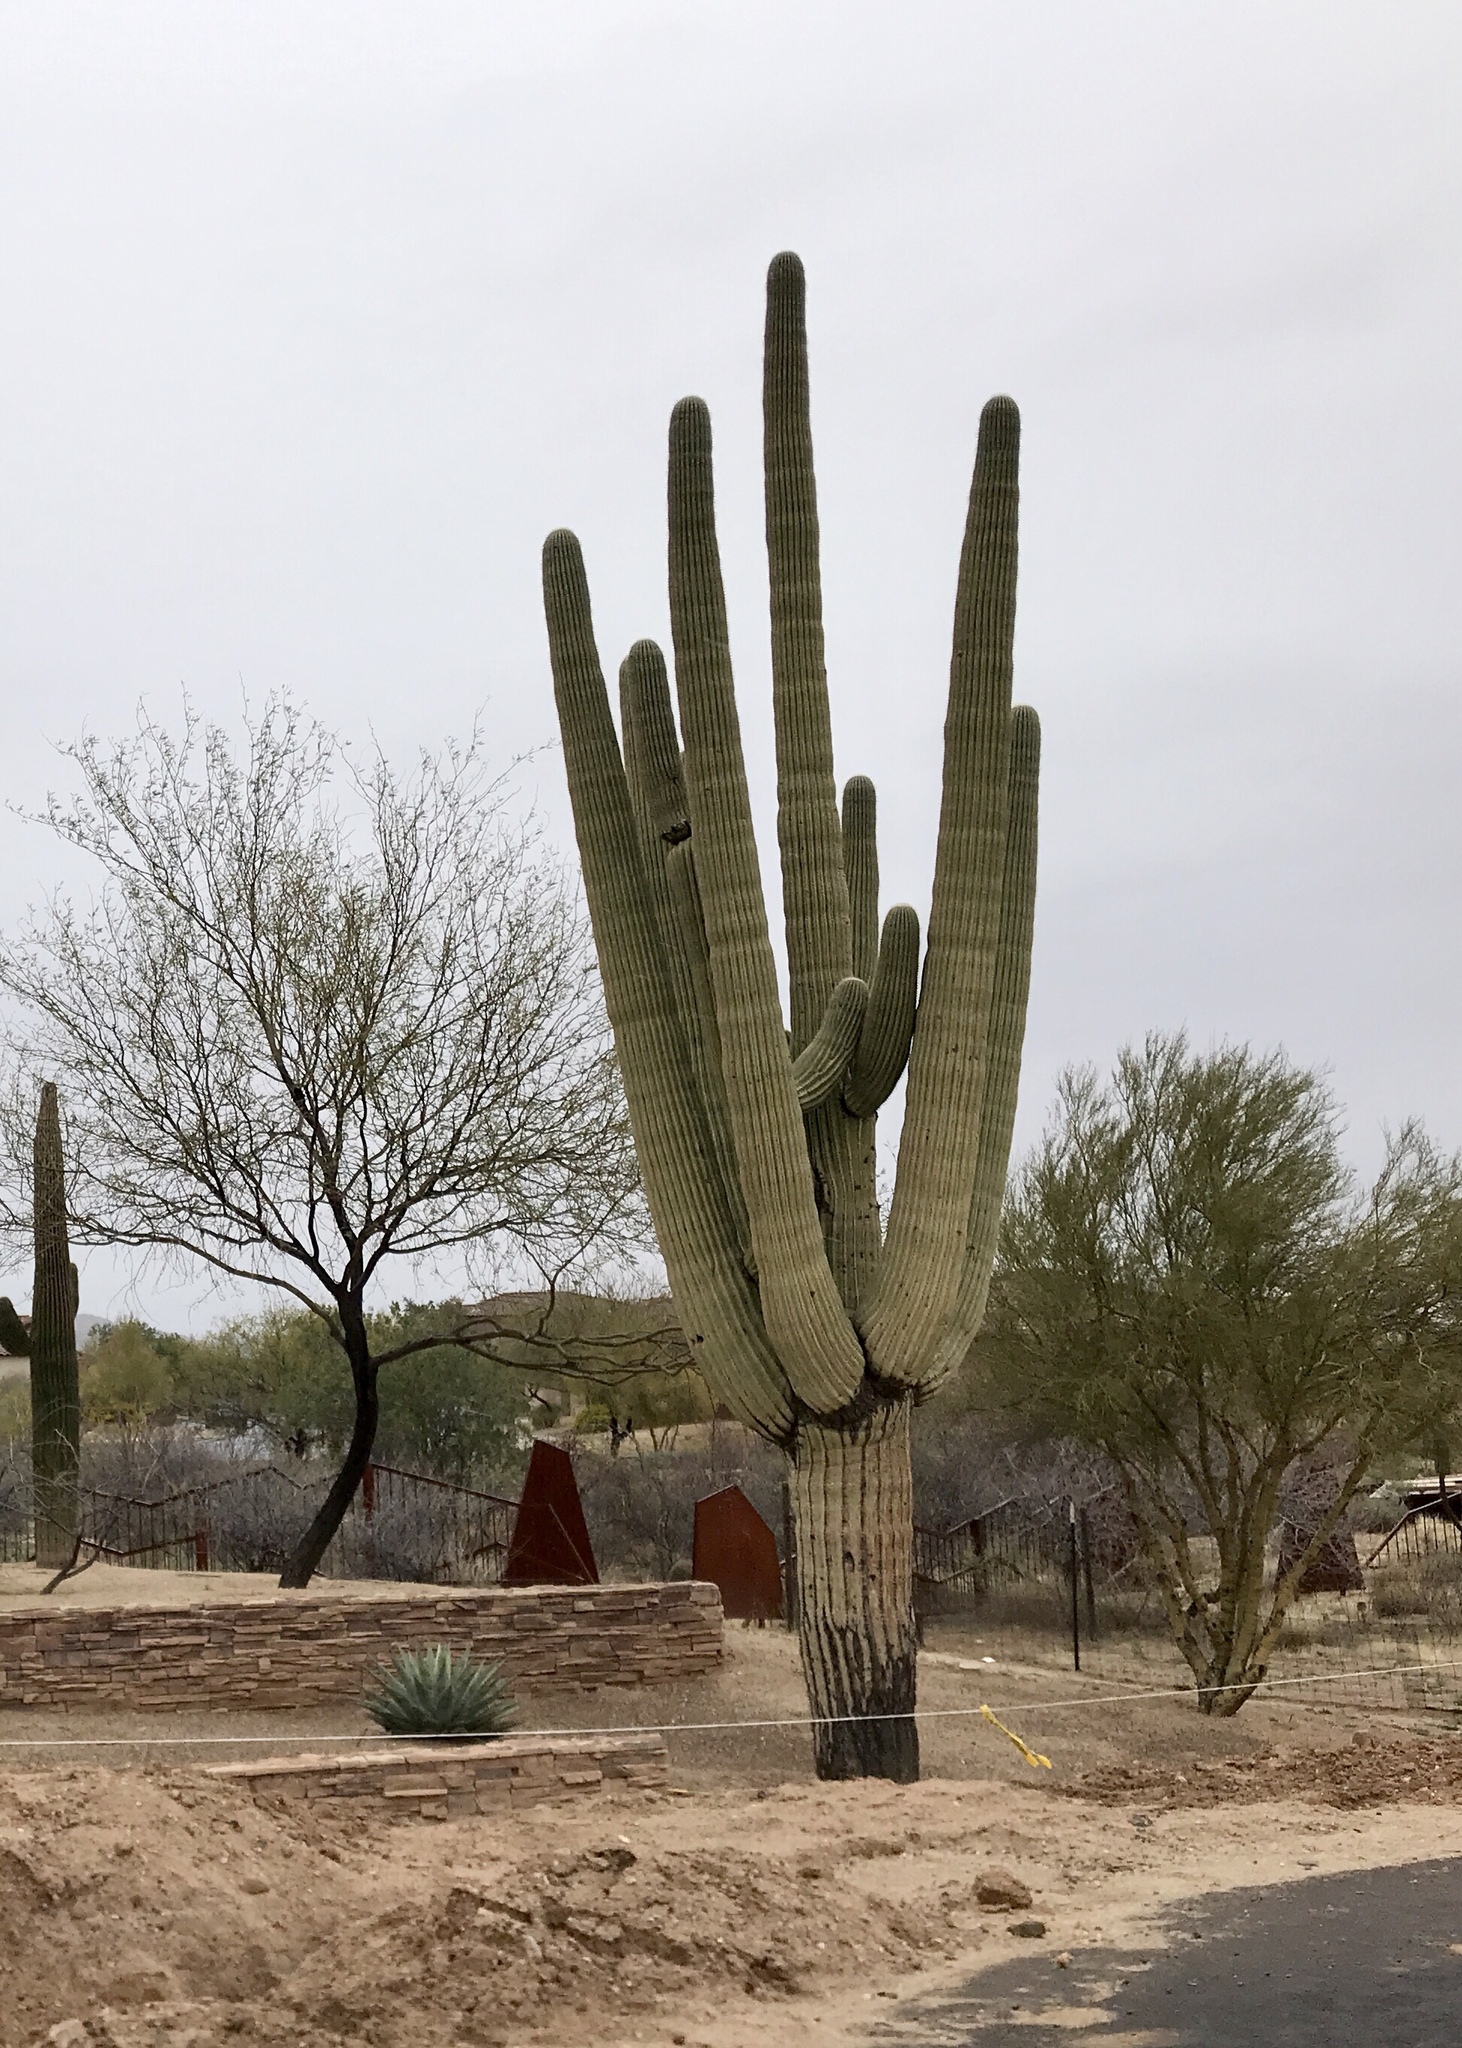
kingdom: Plantae
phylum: Tracheophyta
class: Magnoliopsida
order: Caryophyllales
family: Cactaceae
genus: Carnegiea
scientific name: Carnegiea gigantea
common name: Saguaro
